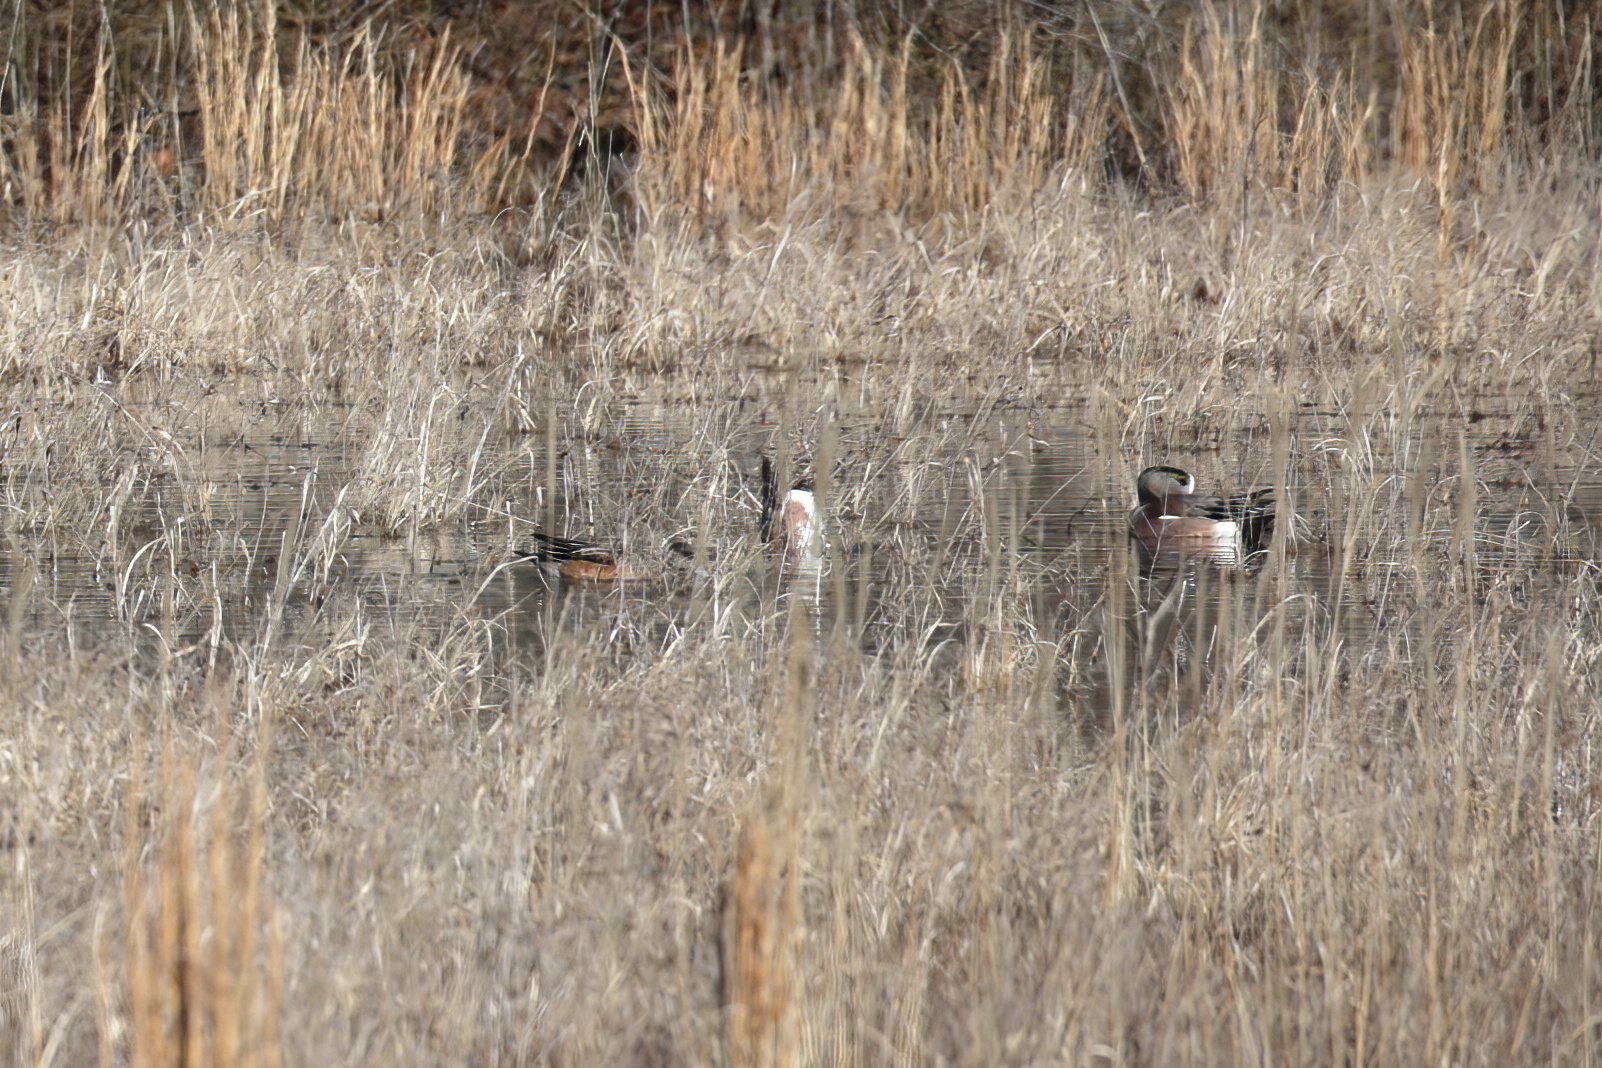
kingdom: Animalia
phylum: Chordata
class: Aves
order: Anseriformes
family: Anatidae
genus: Mareca
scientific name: Mareca americana
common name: American wigeon
